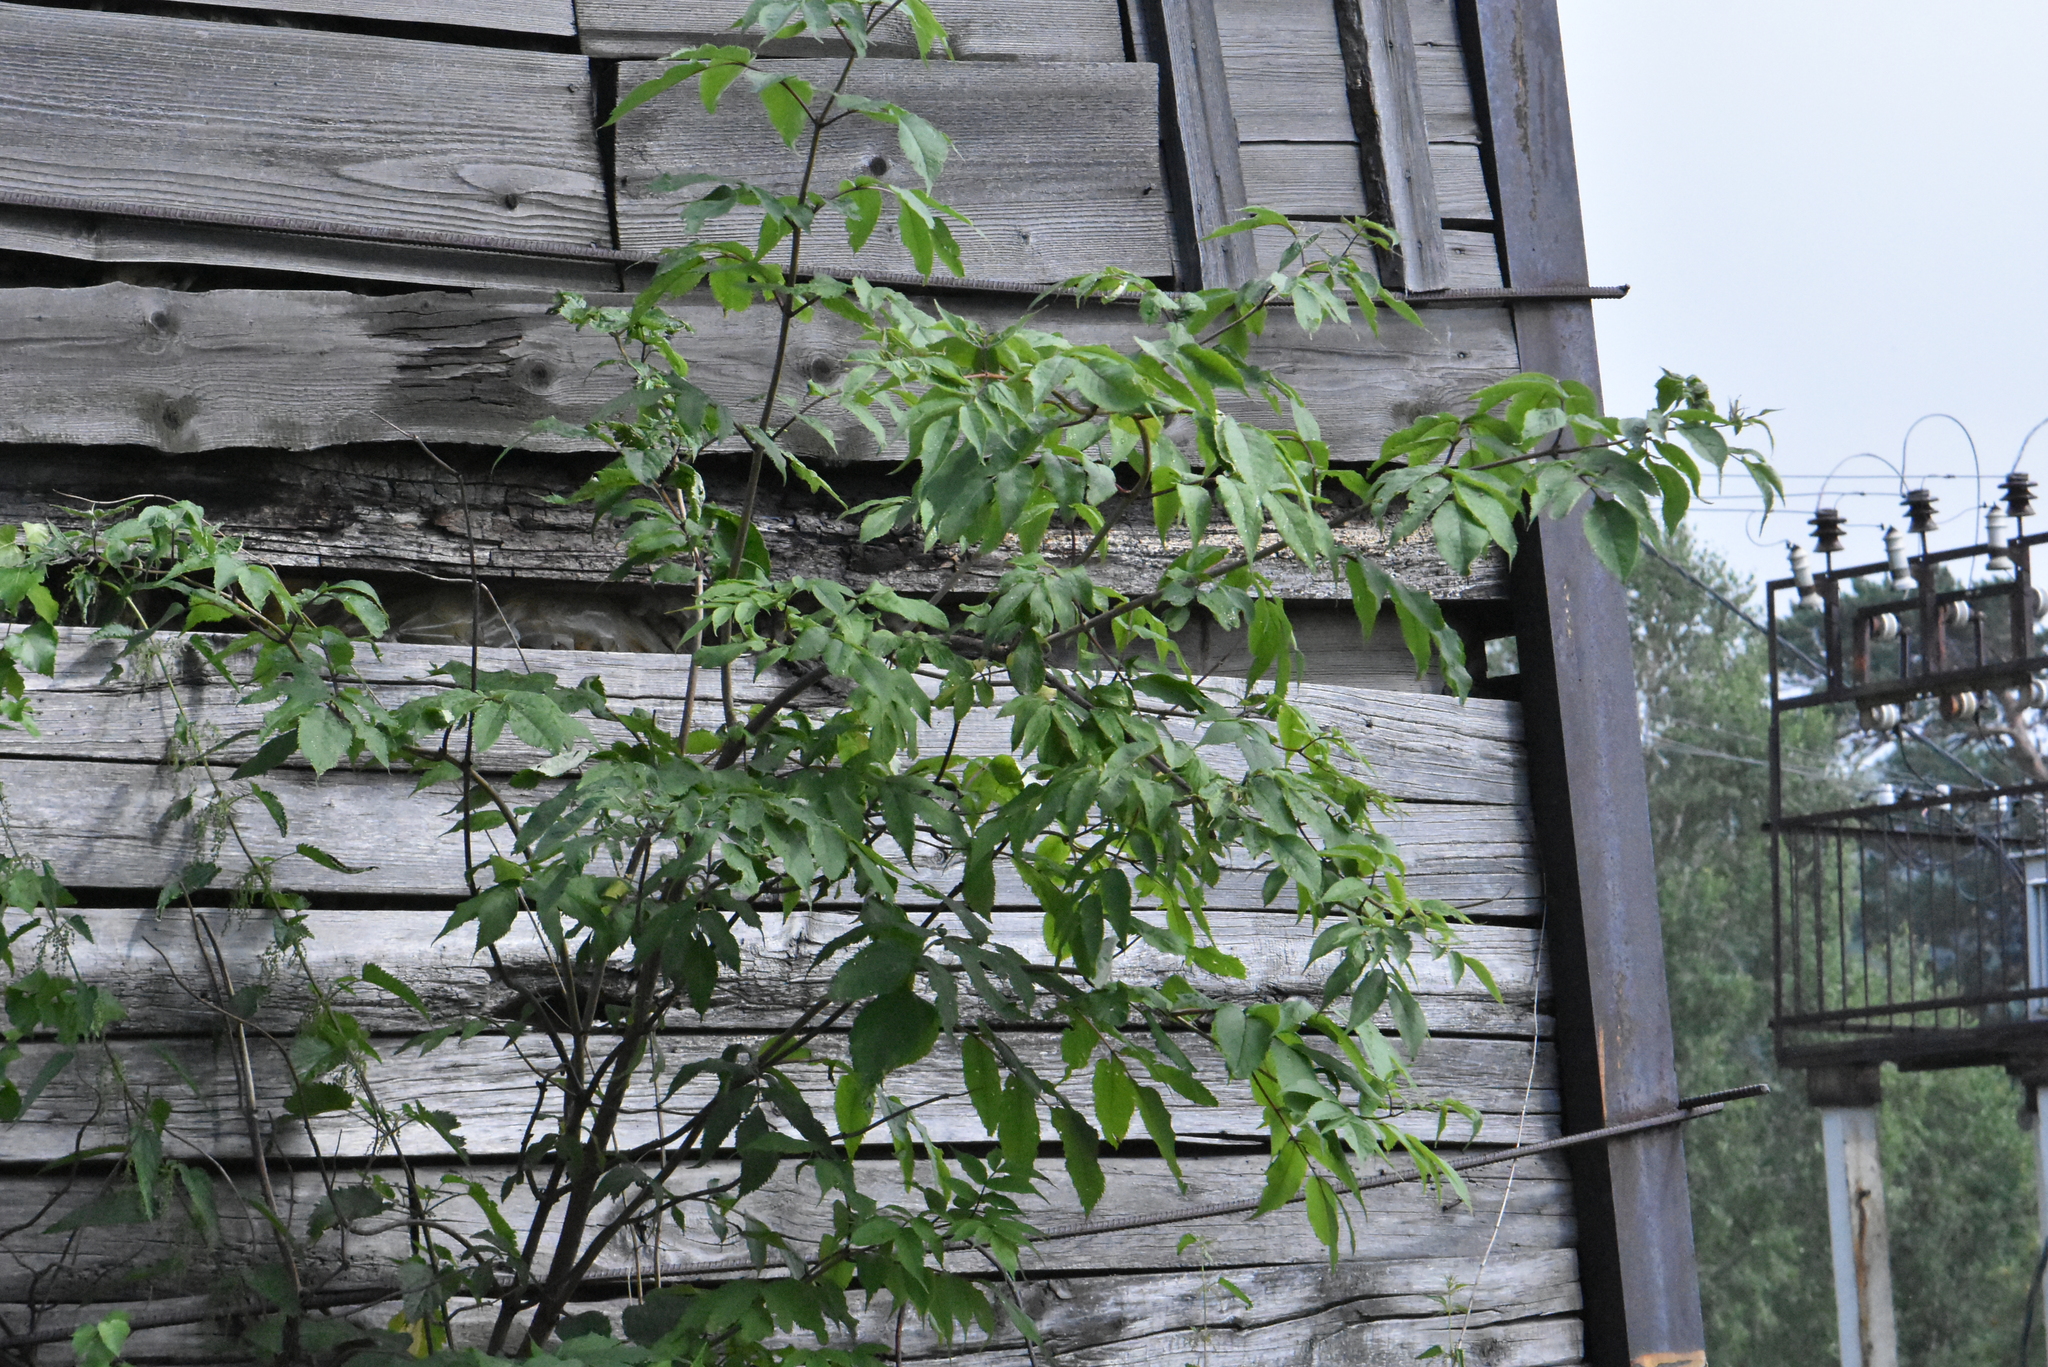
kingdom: Plantae
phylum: Tracheophyta
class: Magnoliopsida
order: Sapindales
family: Sapindaceae
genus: Acer
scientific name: Acer negundo
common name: Ashleaf maple
